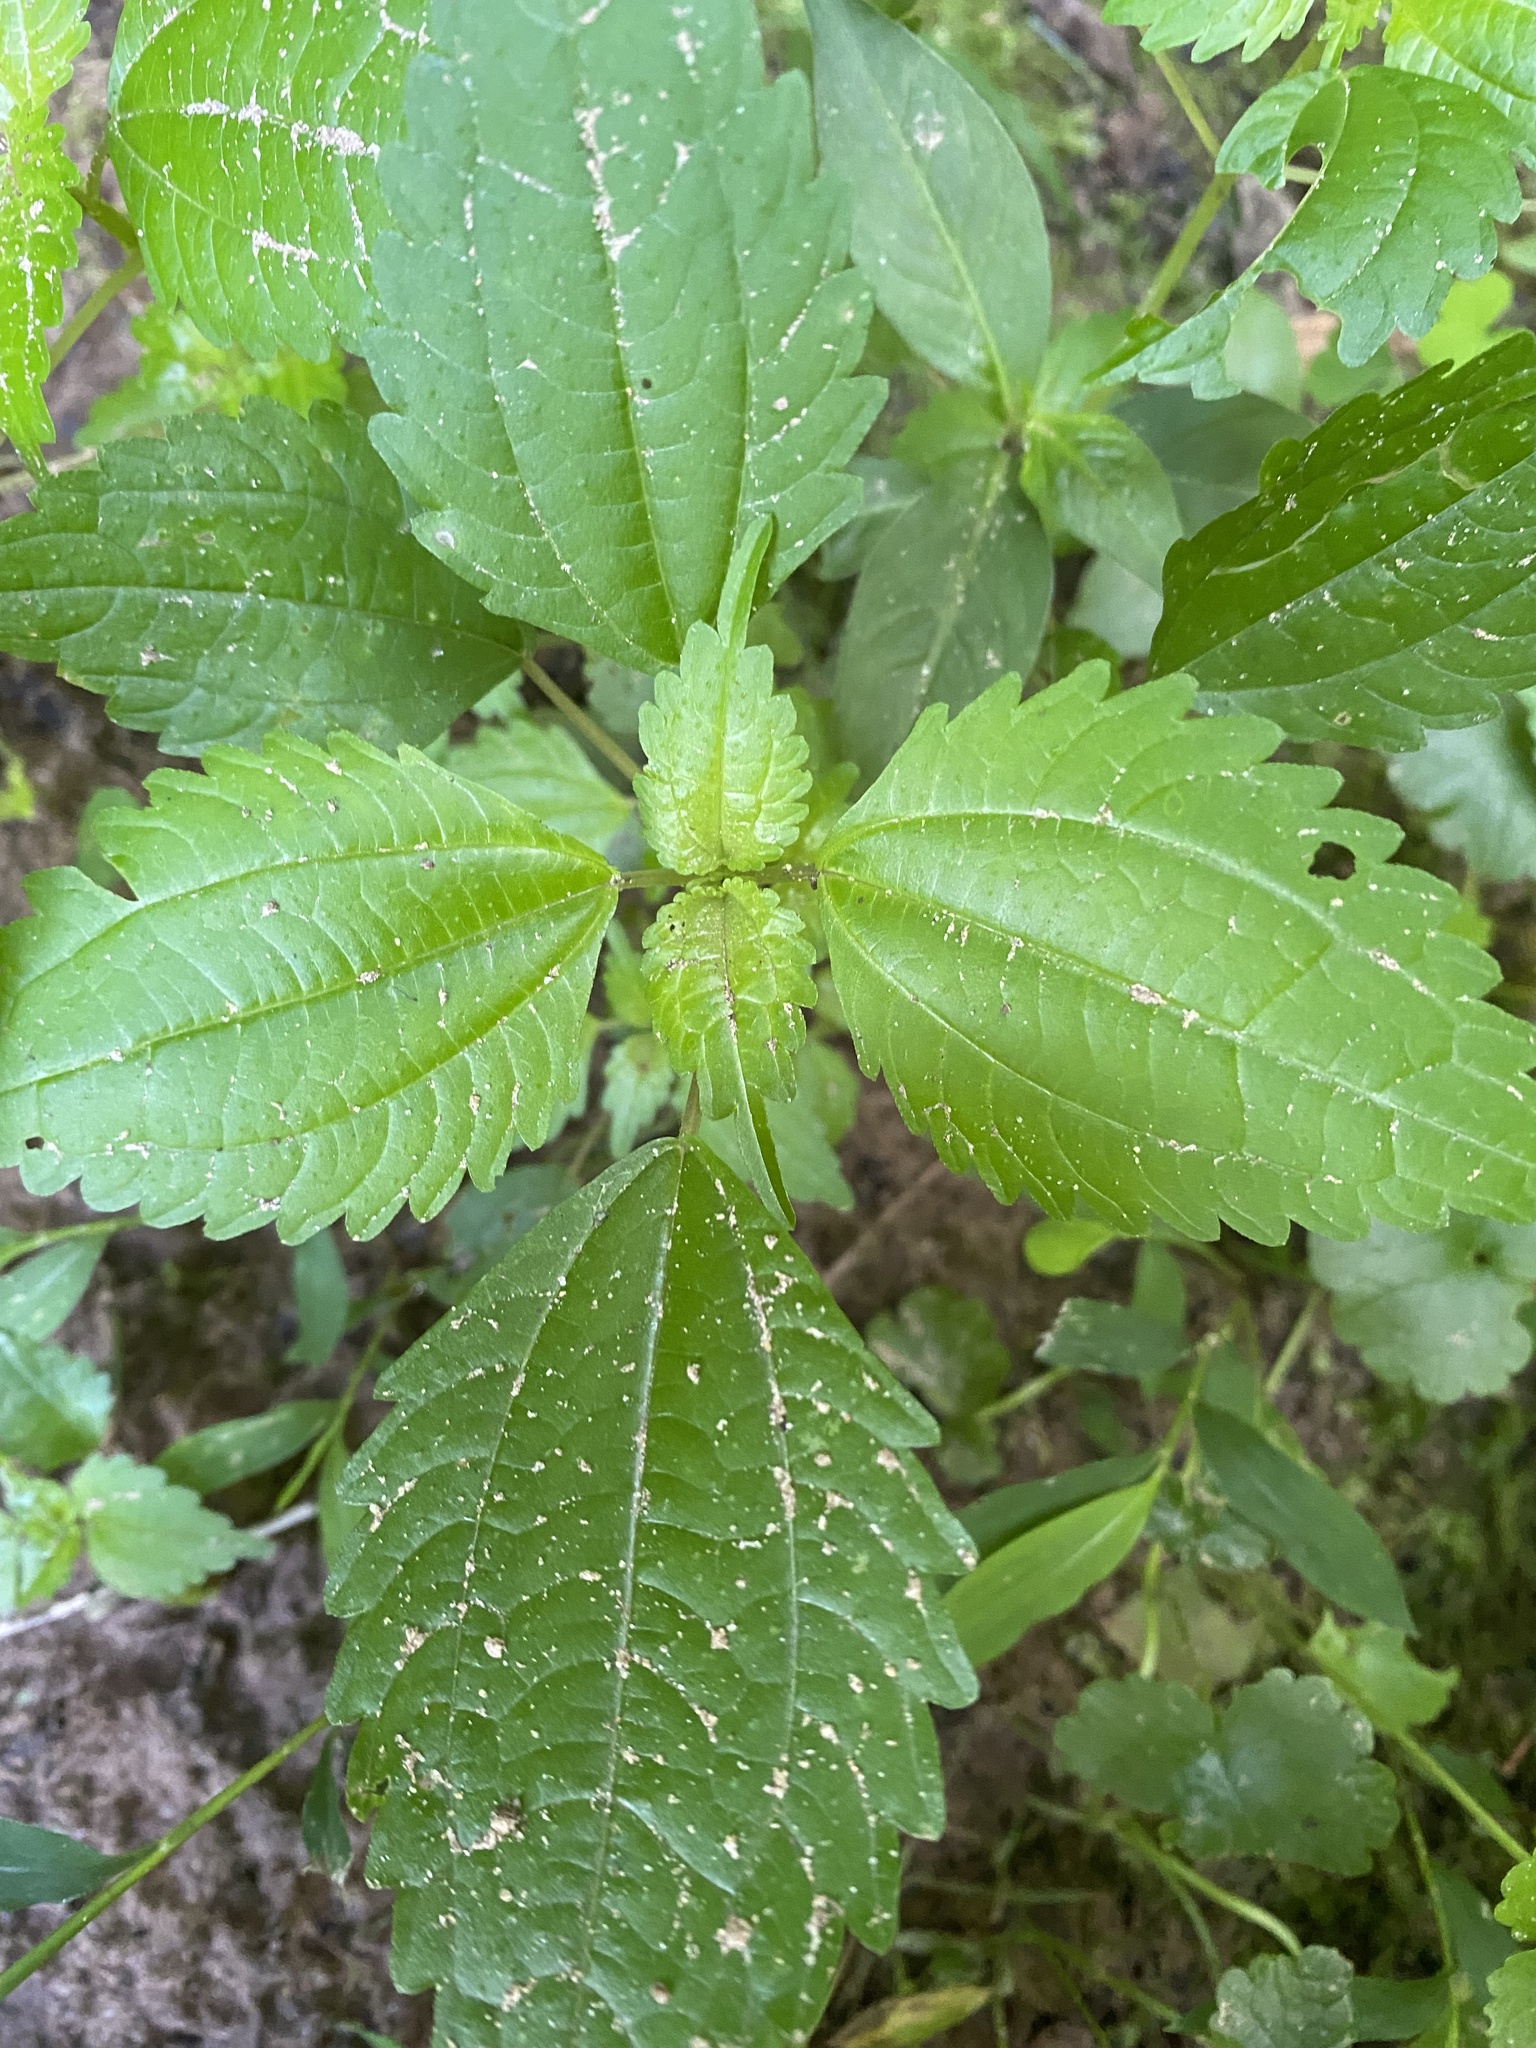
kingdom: Plantae
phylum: Tracheophyta
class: Magnoliopsida
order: Rosales
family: Urticaceae
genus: Pilea
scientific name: Pilea pumila
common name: Clearweed
